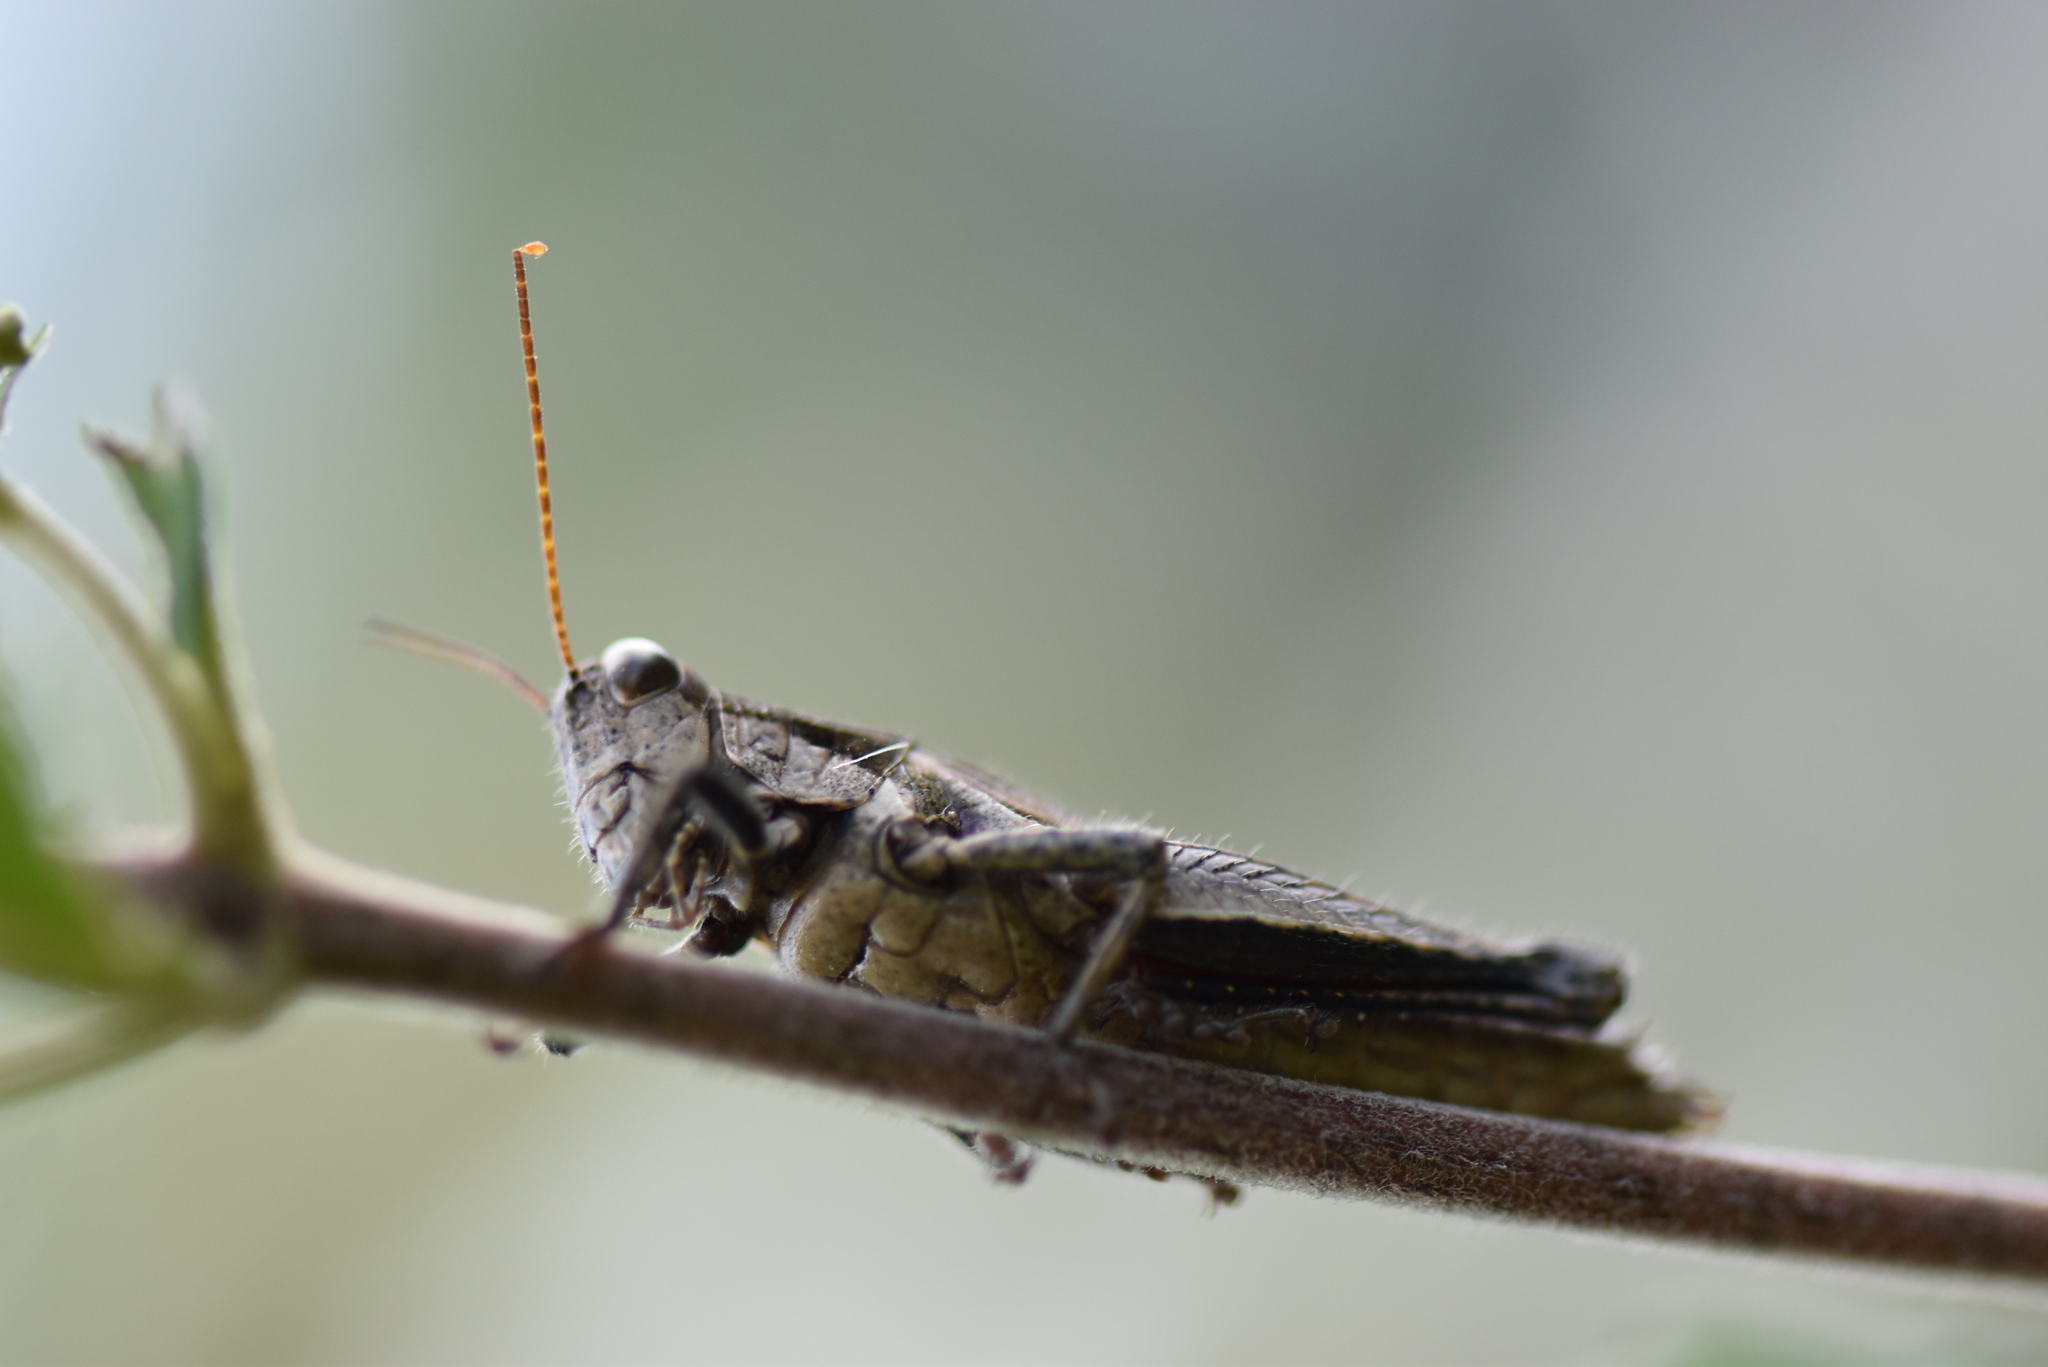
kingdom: Animalia
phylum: Arthropoda
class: Insecta
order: Orthoptera
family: Acrididae
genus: Ronderosia
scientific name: Ronderosia bergii
